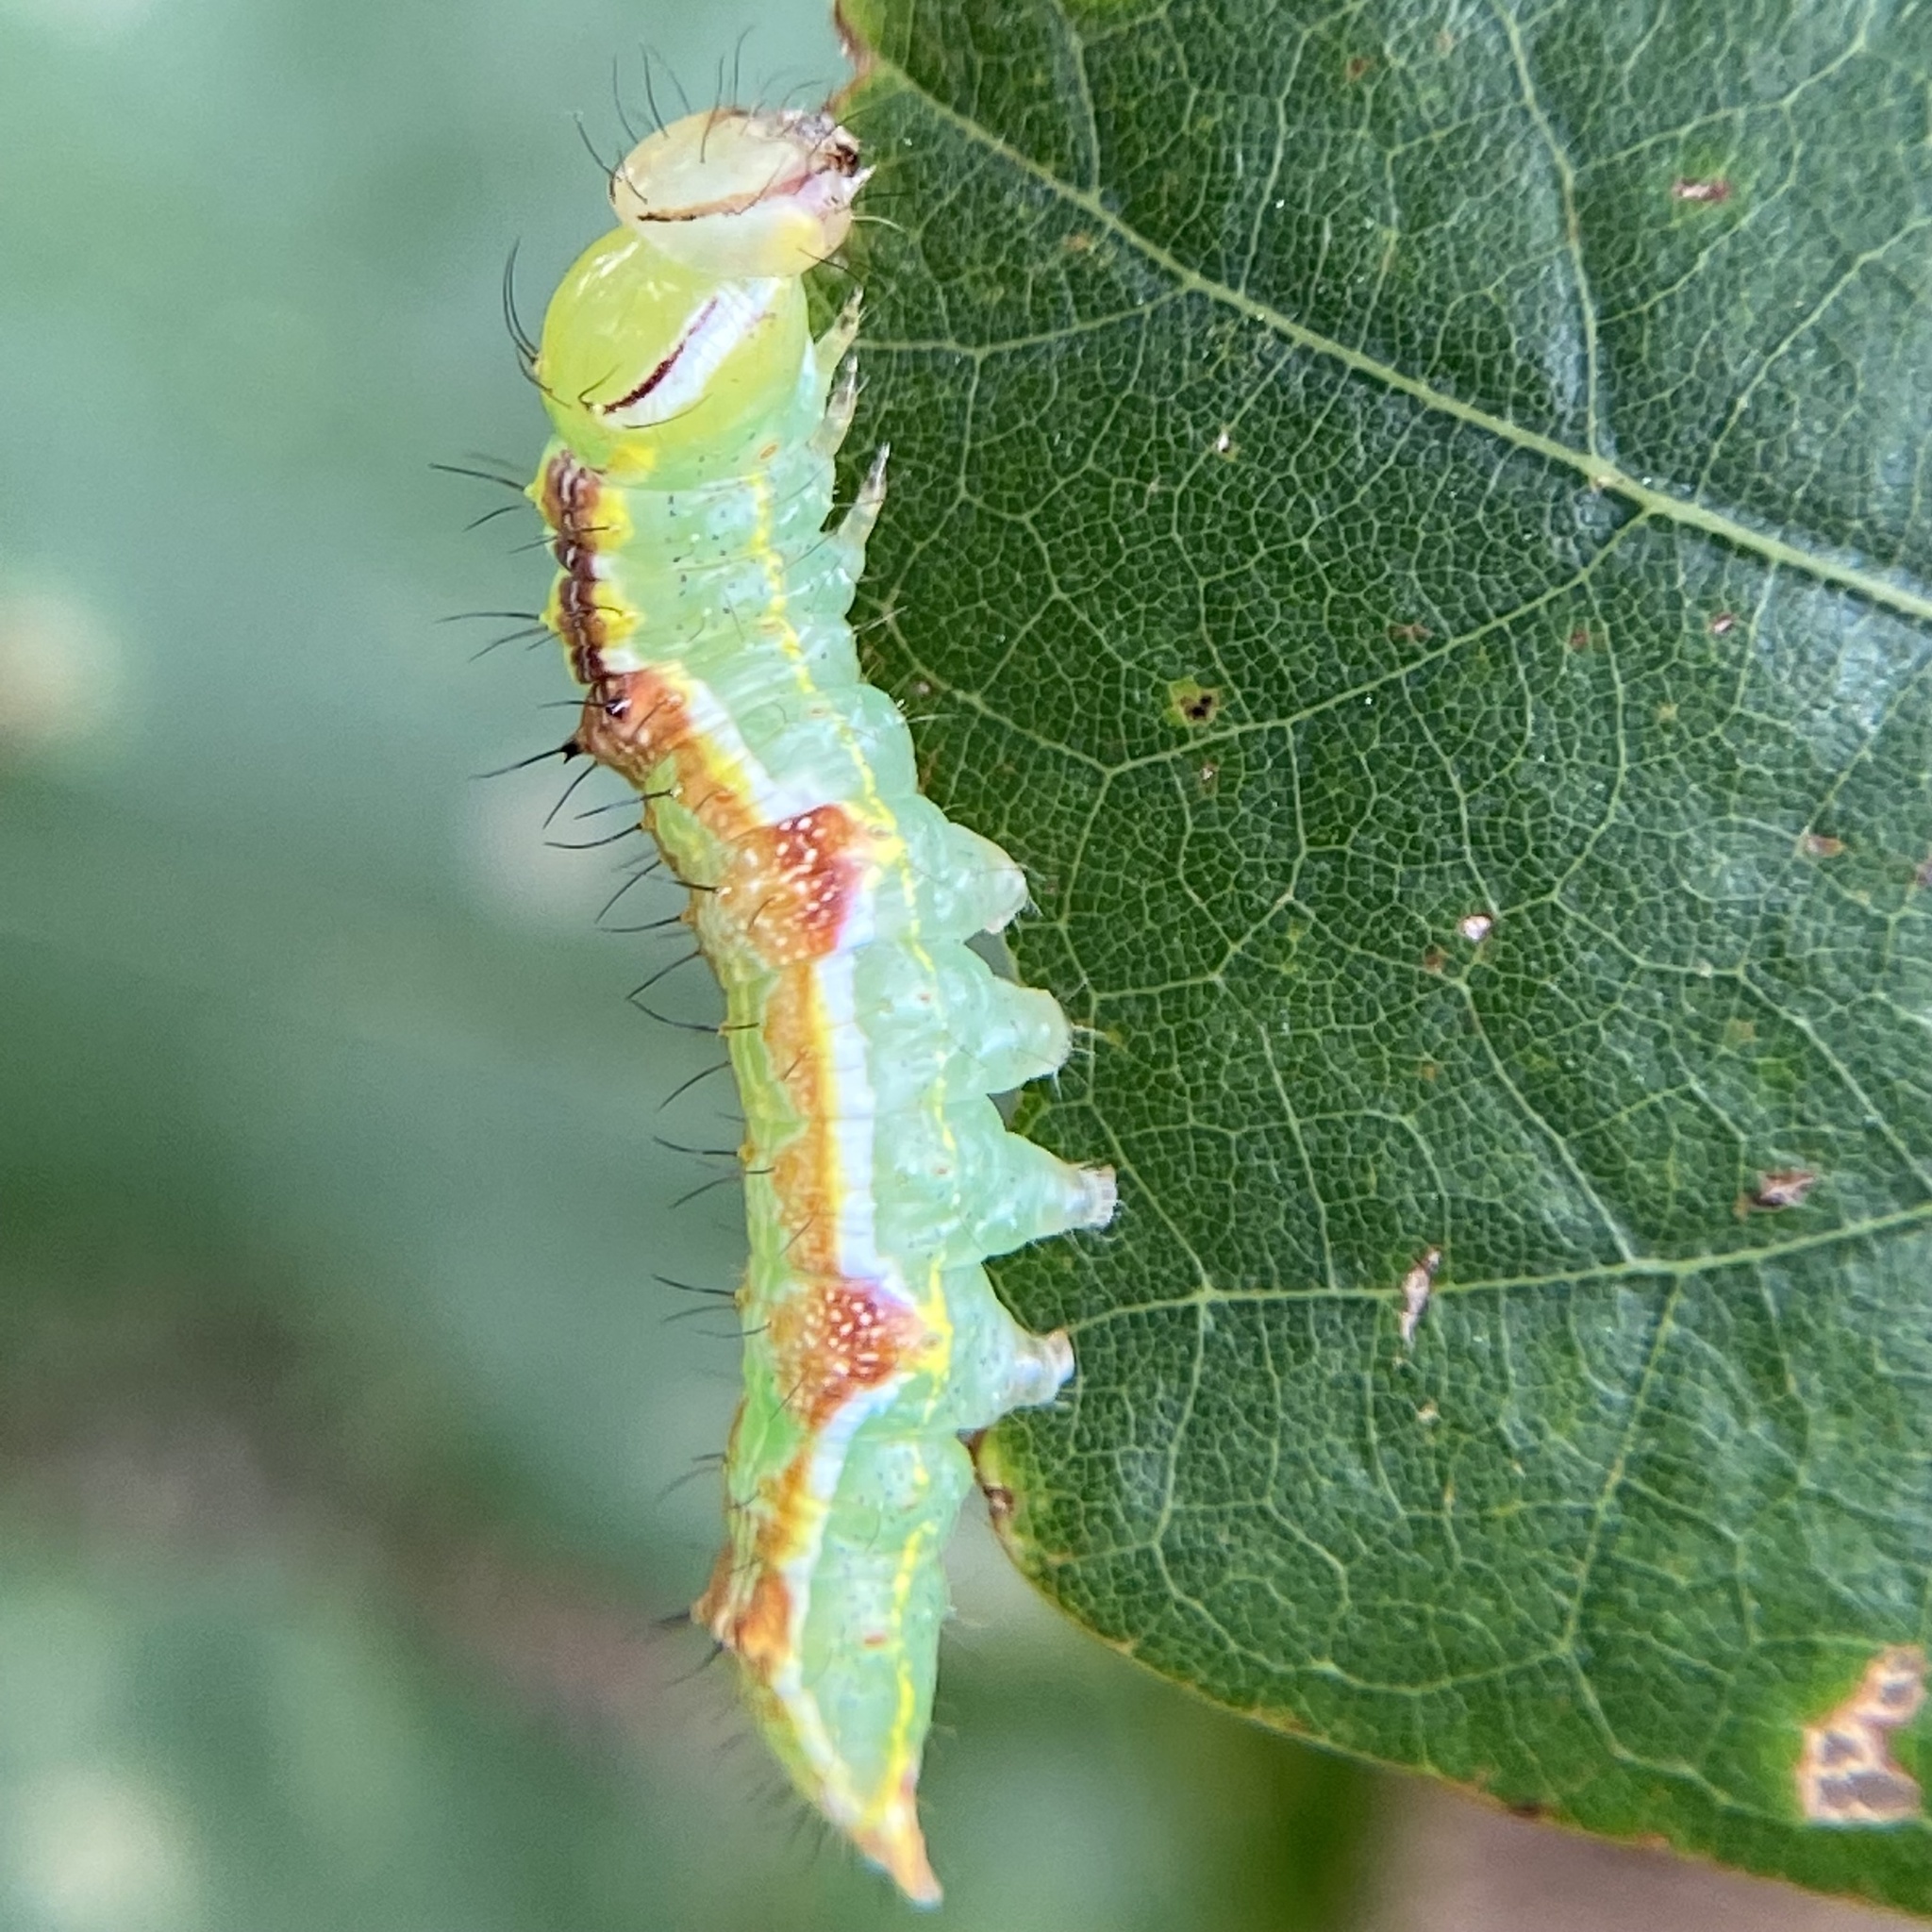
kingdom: Animalia
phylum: Arthropoda
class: Insecta
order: Lepidoptera
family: Notodontidae
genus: Lochmaeus
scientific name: Lochmaeus manteo
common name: Variable oakleaf caterpillar moth
